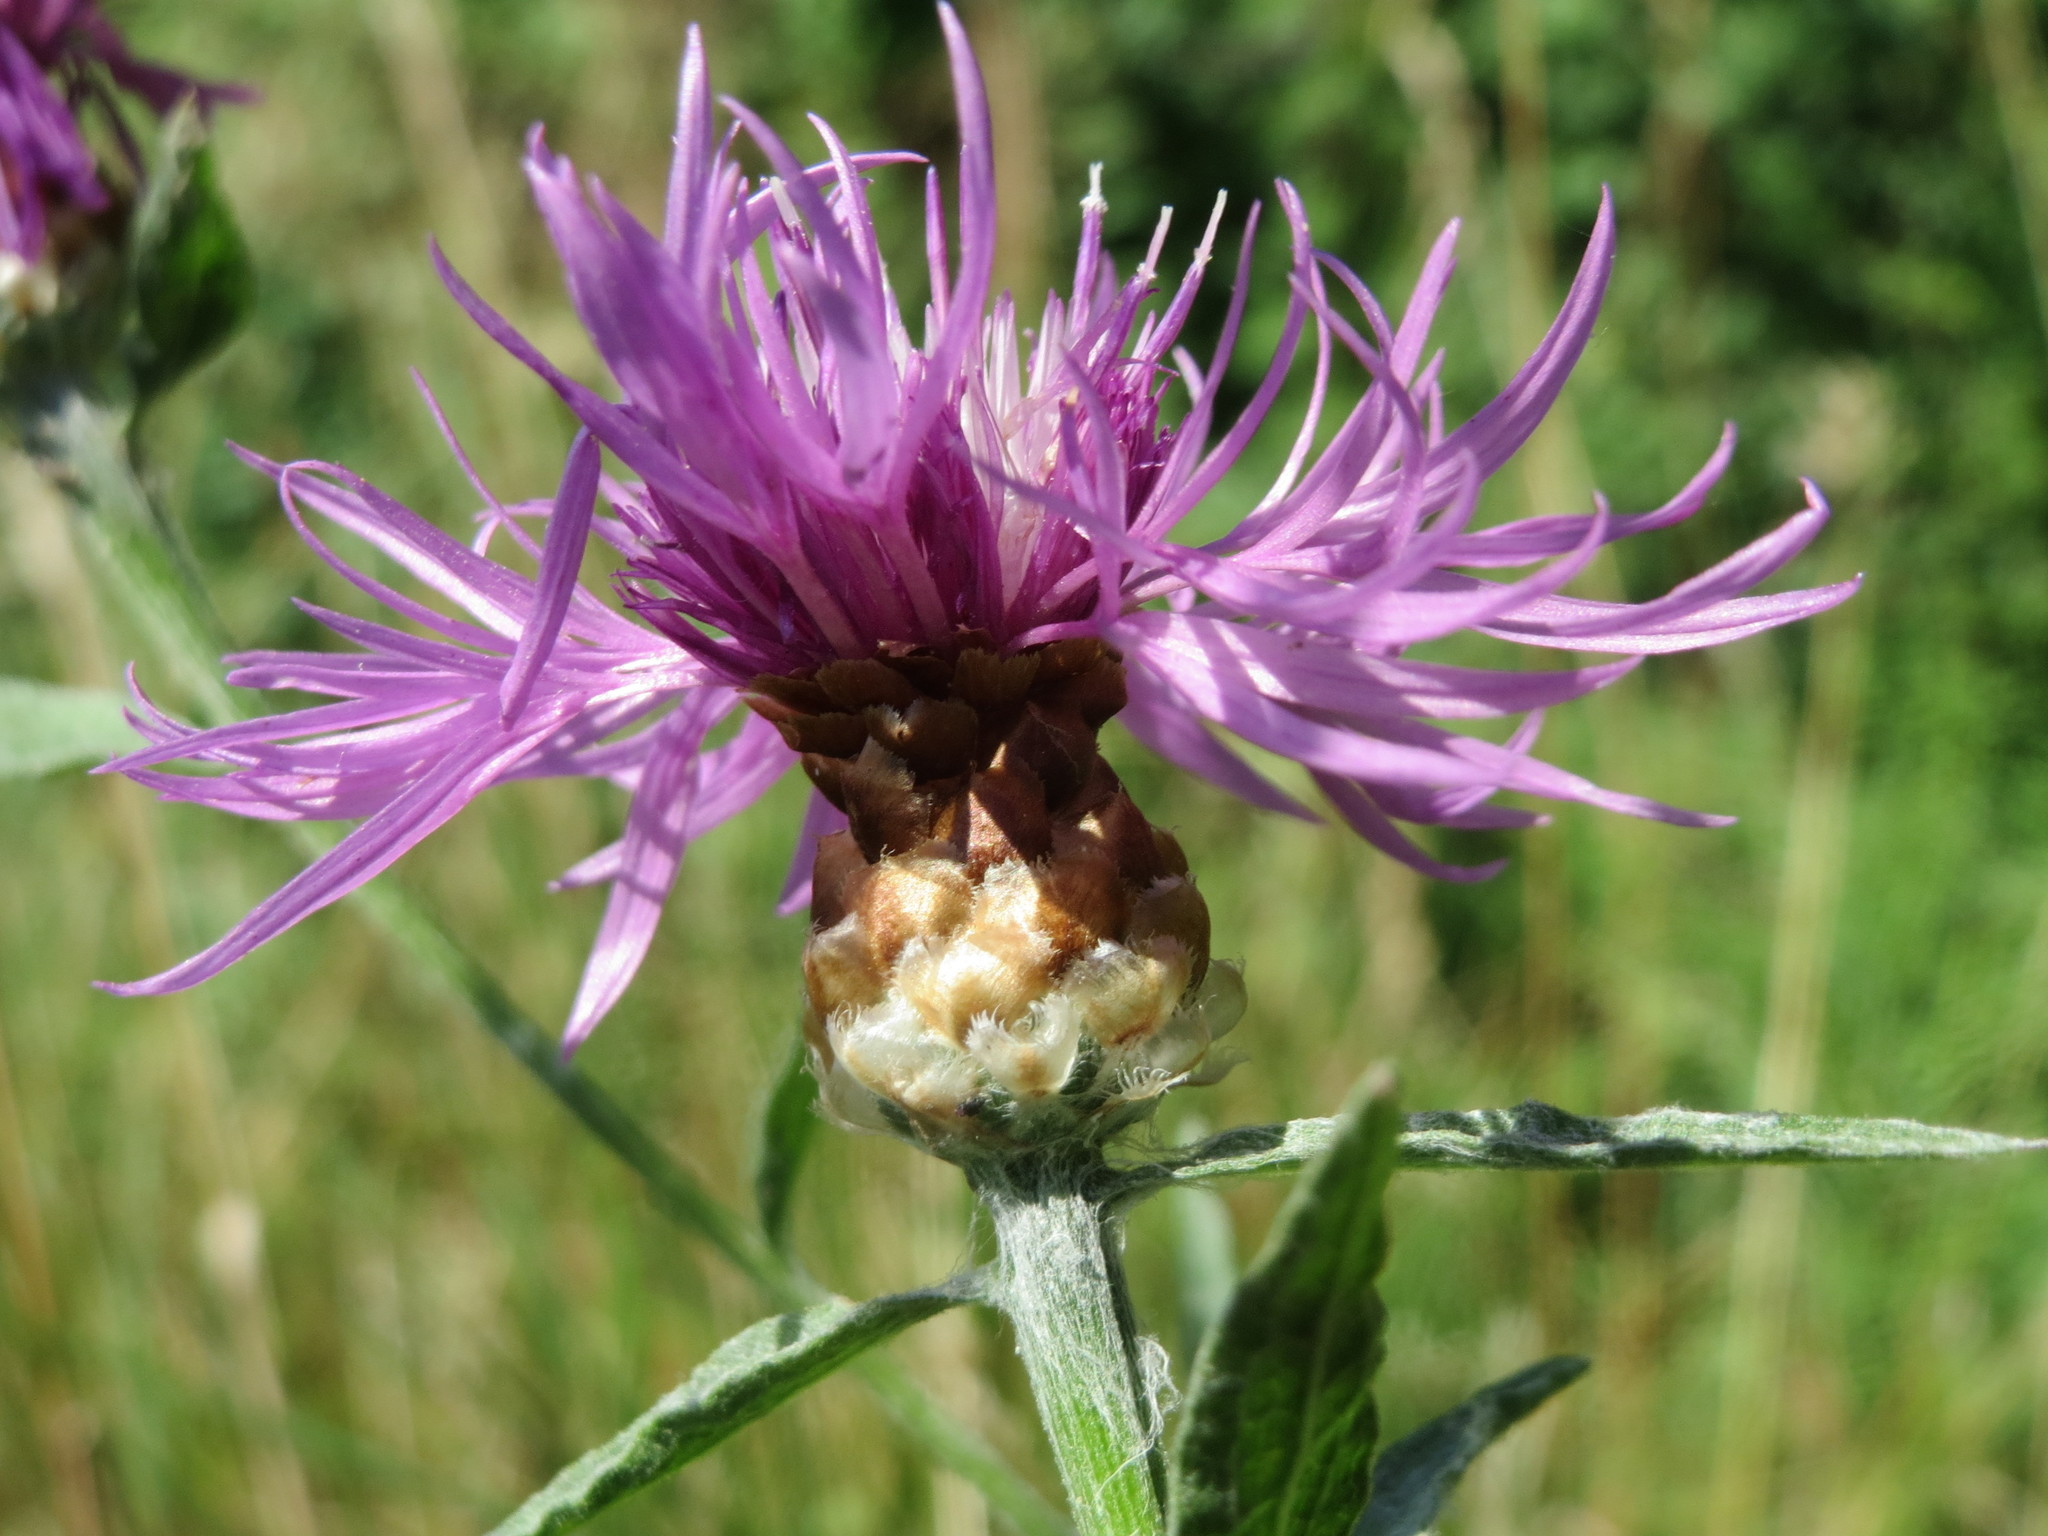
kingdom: Plantae
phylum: Tracheophyta
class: Magnoliopsida
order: Asterales
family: Asteraceae
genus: Centaurea
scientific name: Centaurea jacea
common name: Brown knapweed
